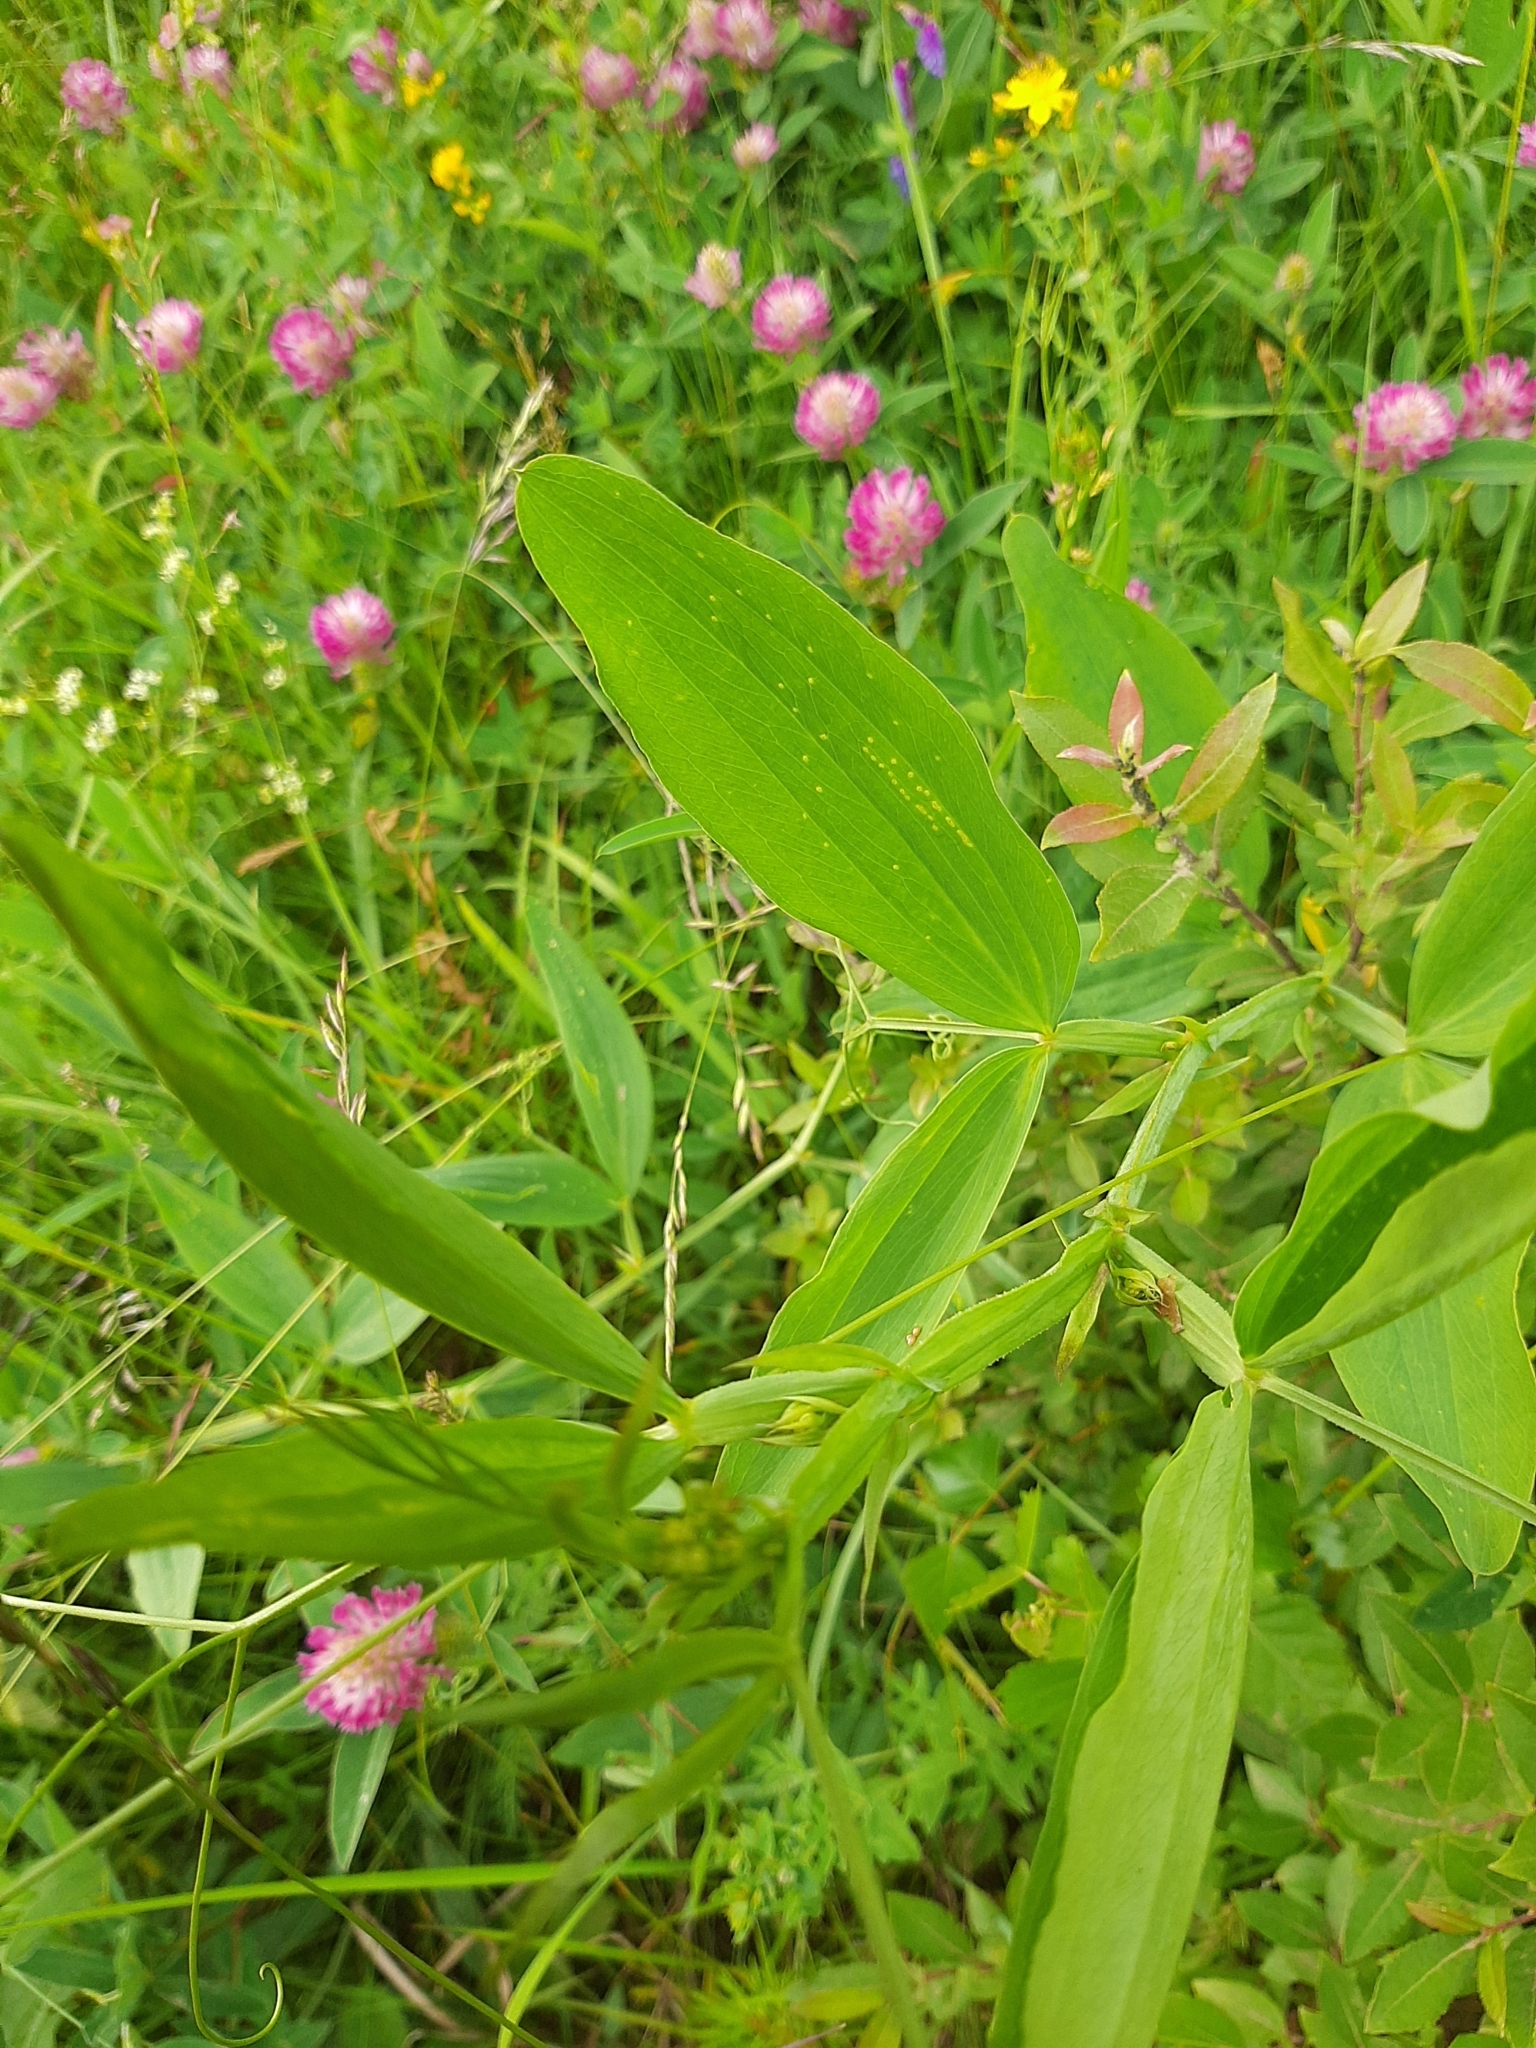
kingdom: Plantae
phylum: Tracheophyta
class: Magnoliopsida
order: Fabales
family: Fabaceae
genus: Lathyrus
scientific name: Lathyrus sylvestris
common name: Flat pea
